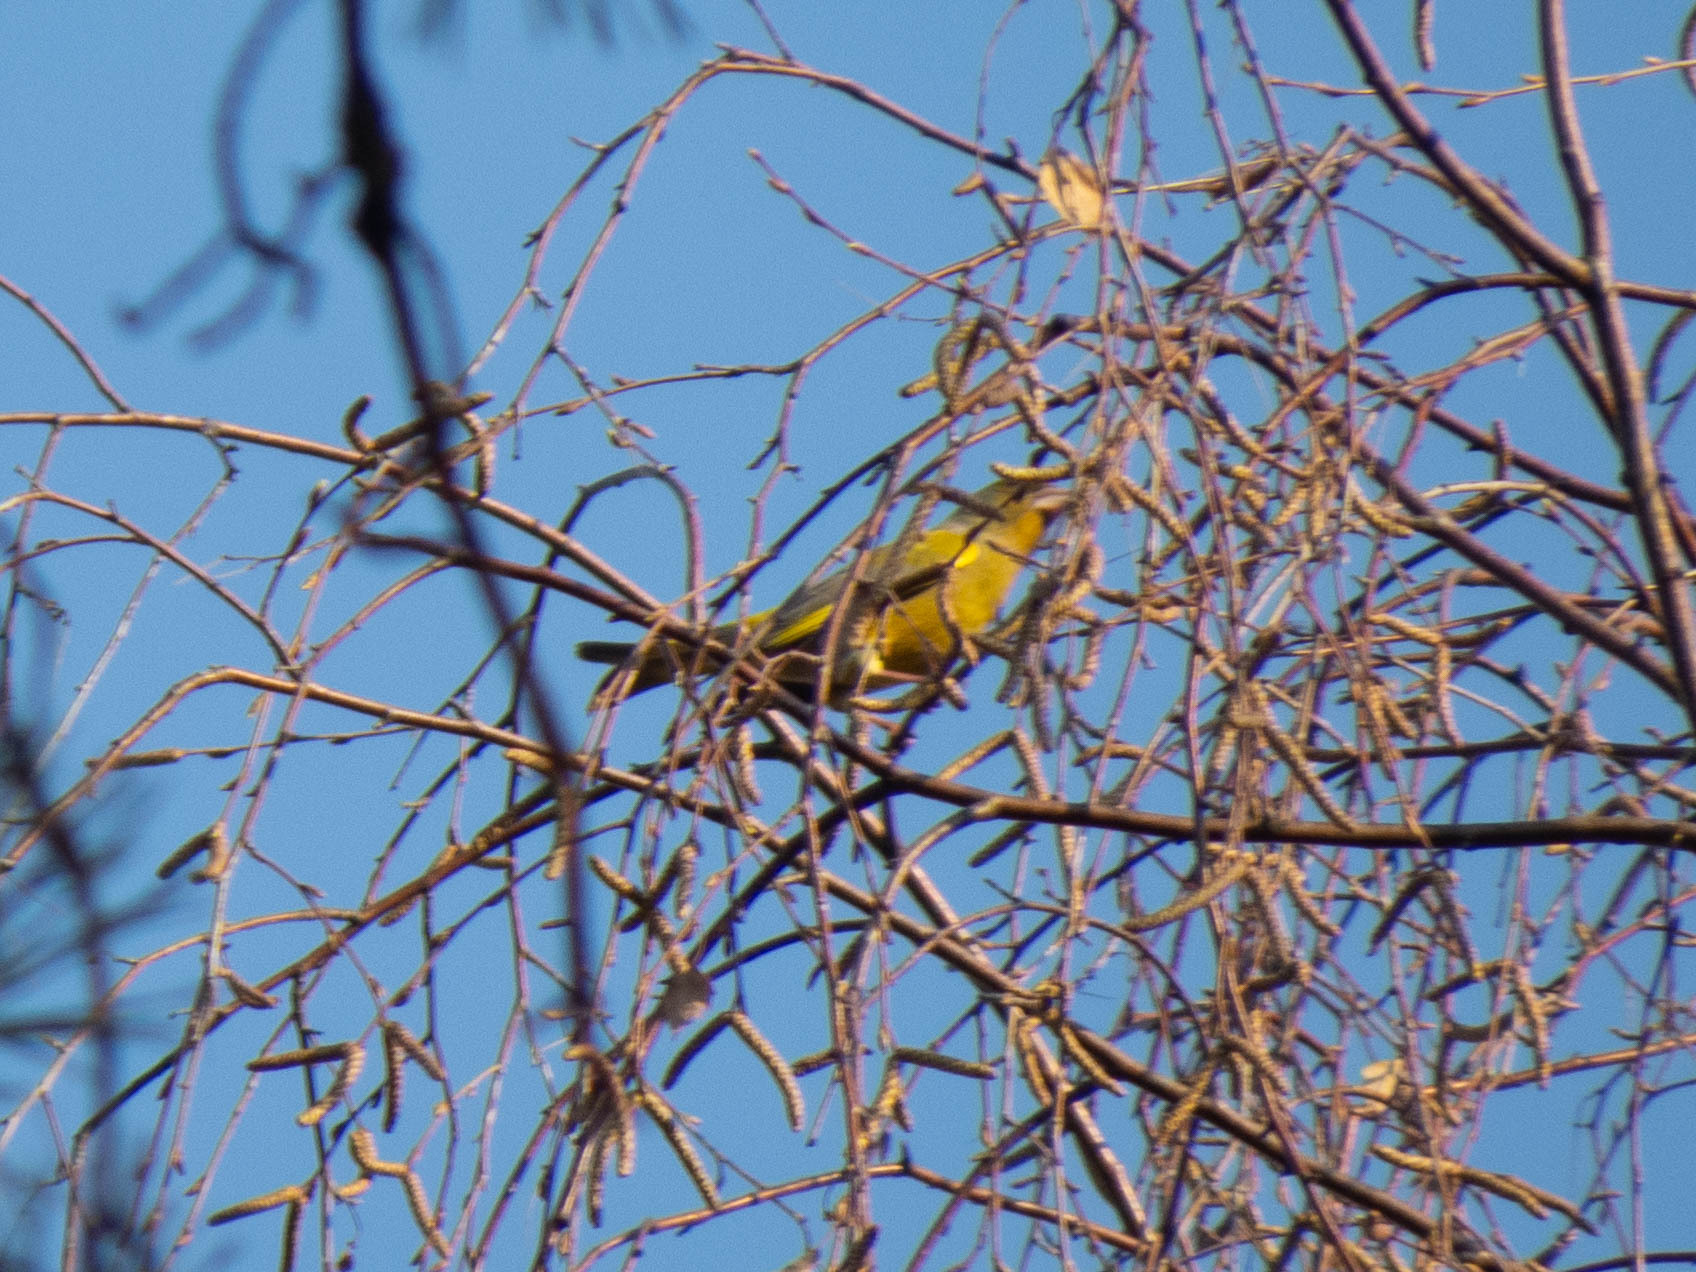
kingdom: Plantae
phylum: Tracheophyta
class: Liliopsida
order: Poales
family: Poaceae
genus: Chloris
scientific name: Chloris chloris
